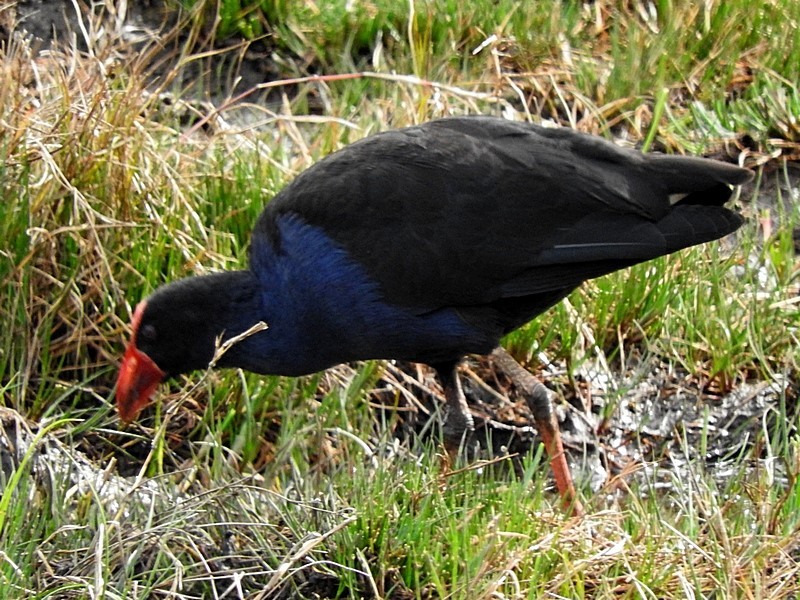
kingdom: Animalia
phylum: Chordata
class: Aves
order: Gruiformes
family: Rallidae
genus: Porphyrio
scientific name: Porphyrio melanotus
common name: Australasian swamphen
